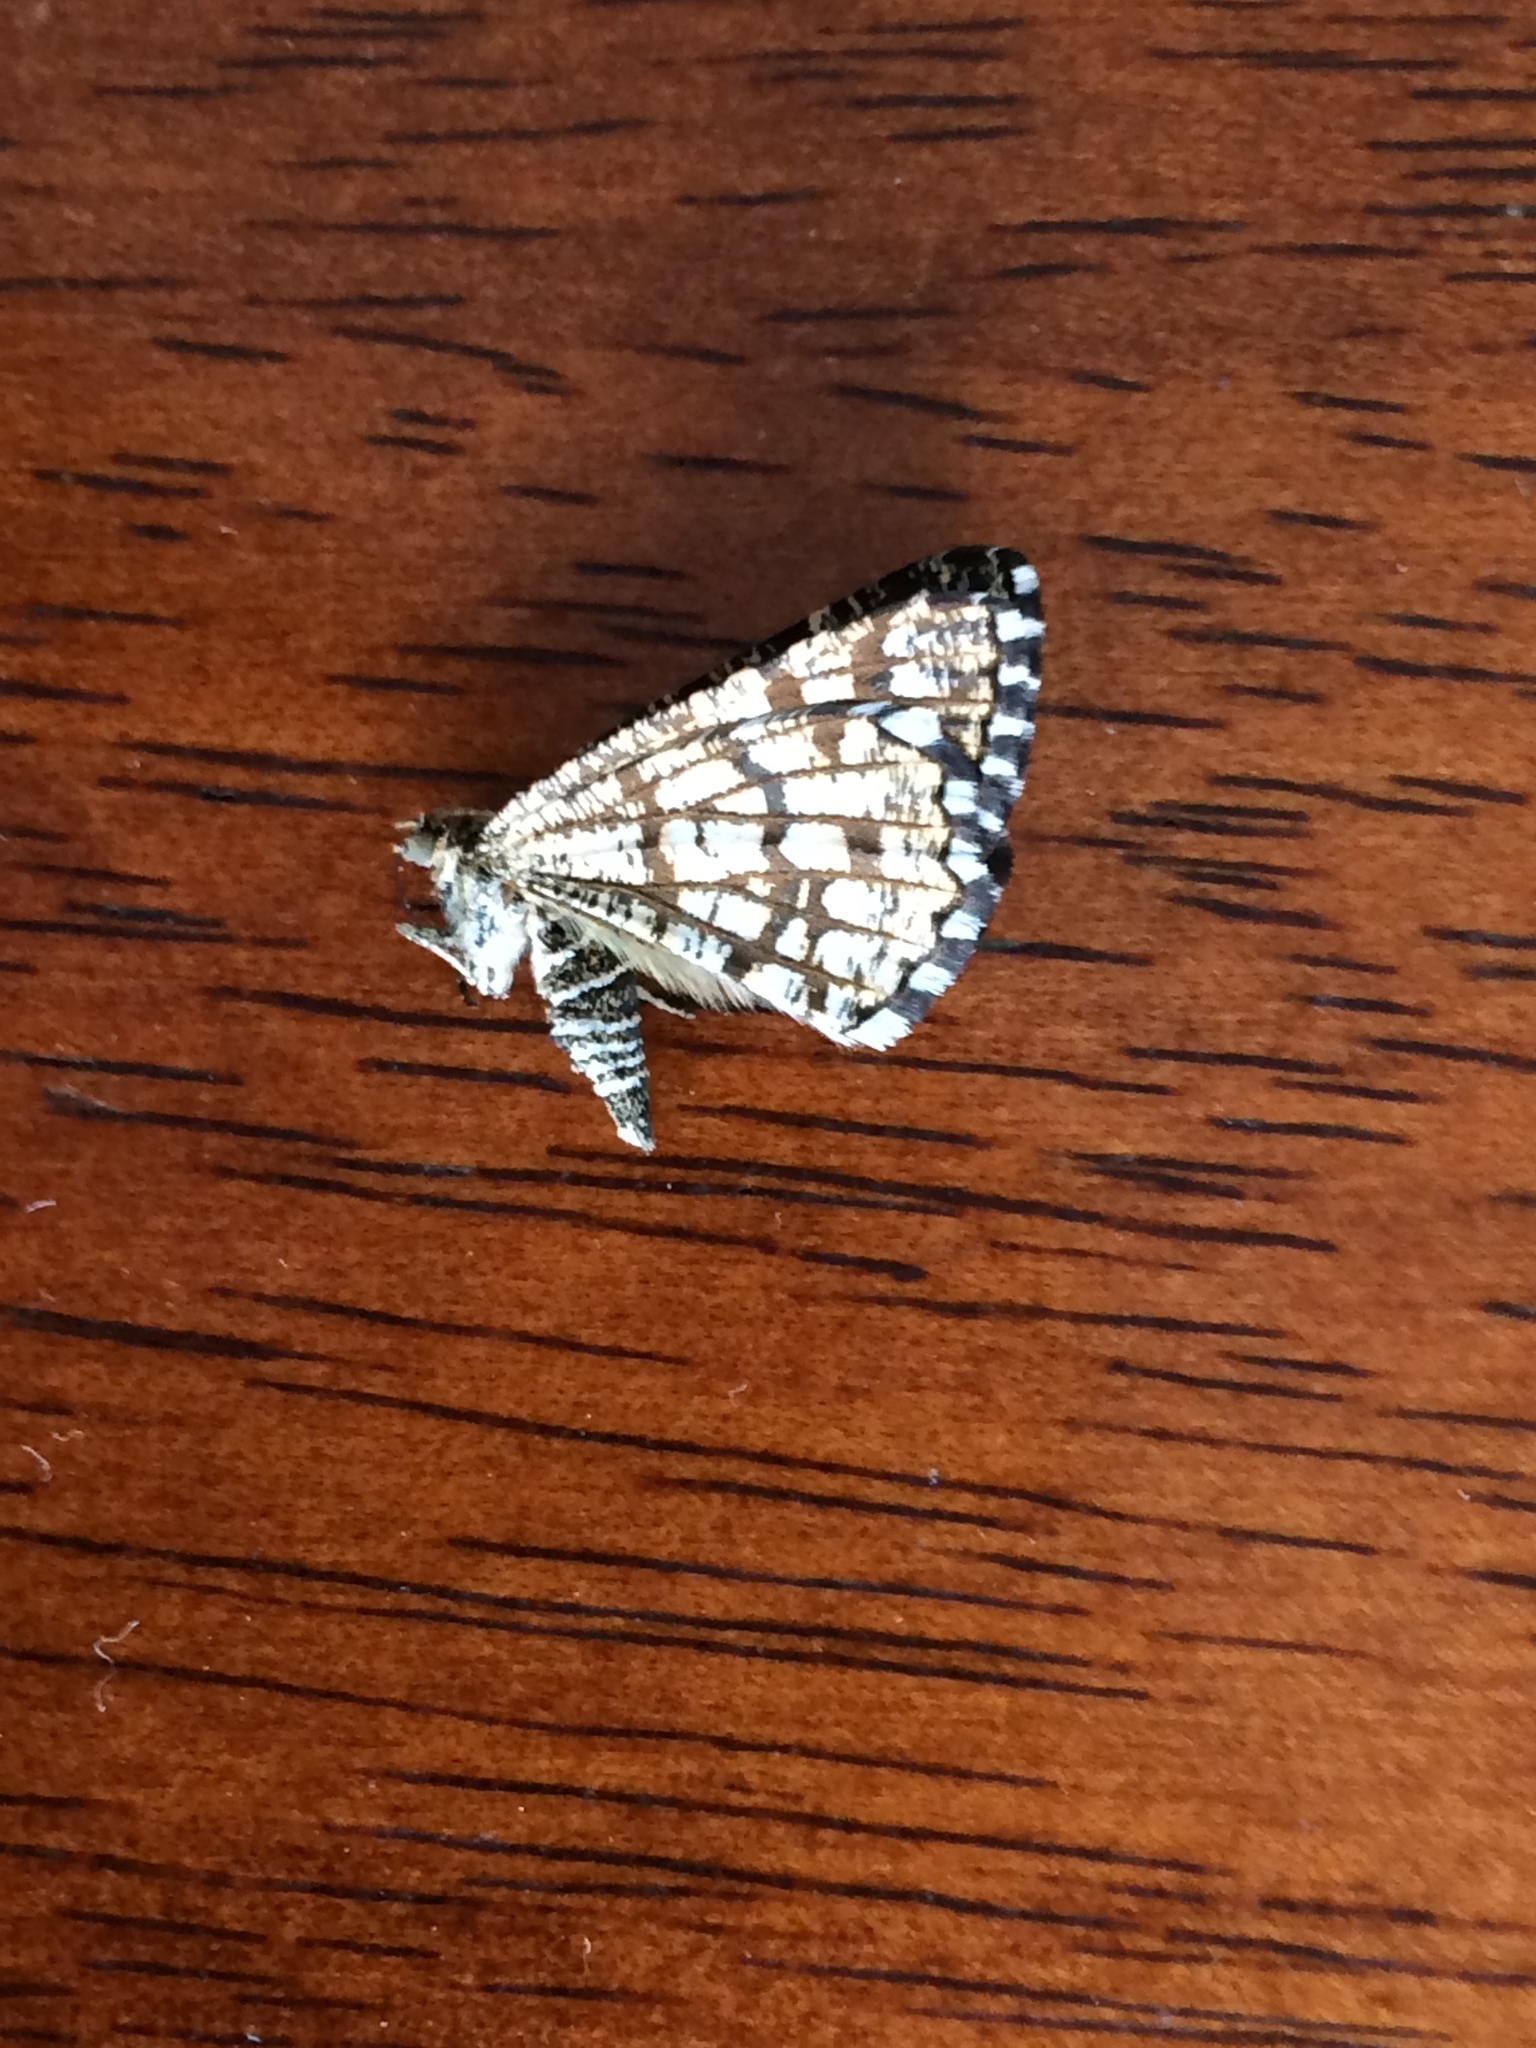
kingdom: Animalia
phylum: Arthropoda
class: Insecta
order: Lepidoptera
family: Geometridae
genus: Chiasmia
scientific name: Chiasmia clathrata
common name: Latticed heath
